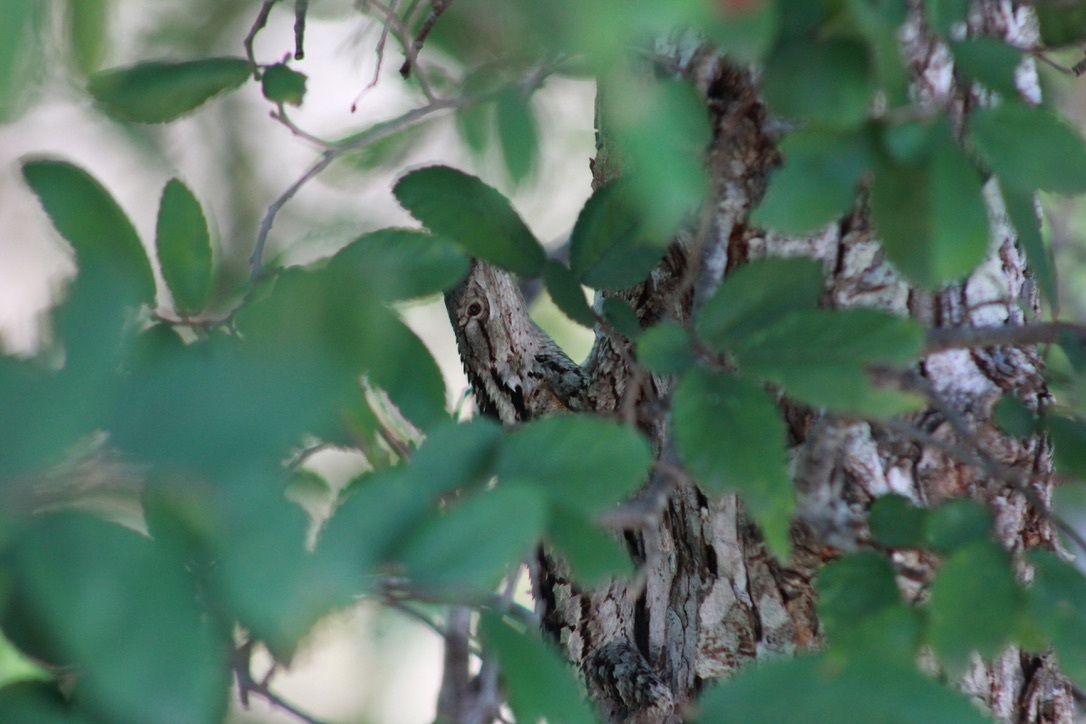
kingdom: Animalia
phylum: Chordata
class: Squamata
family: Phrynosomatidae
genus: Sceloporus
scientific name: Sceloporus olivaceus
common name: Texas spiny lizard
